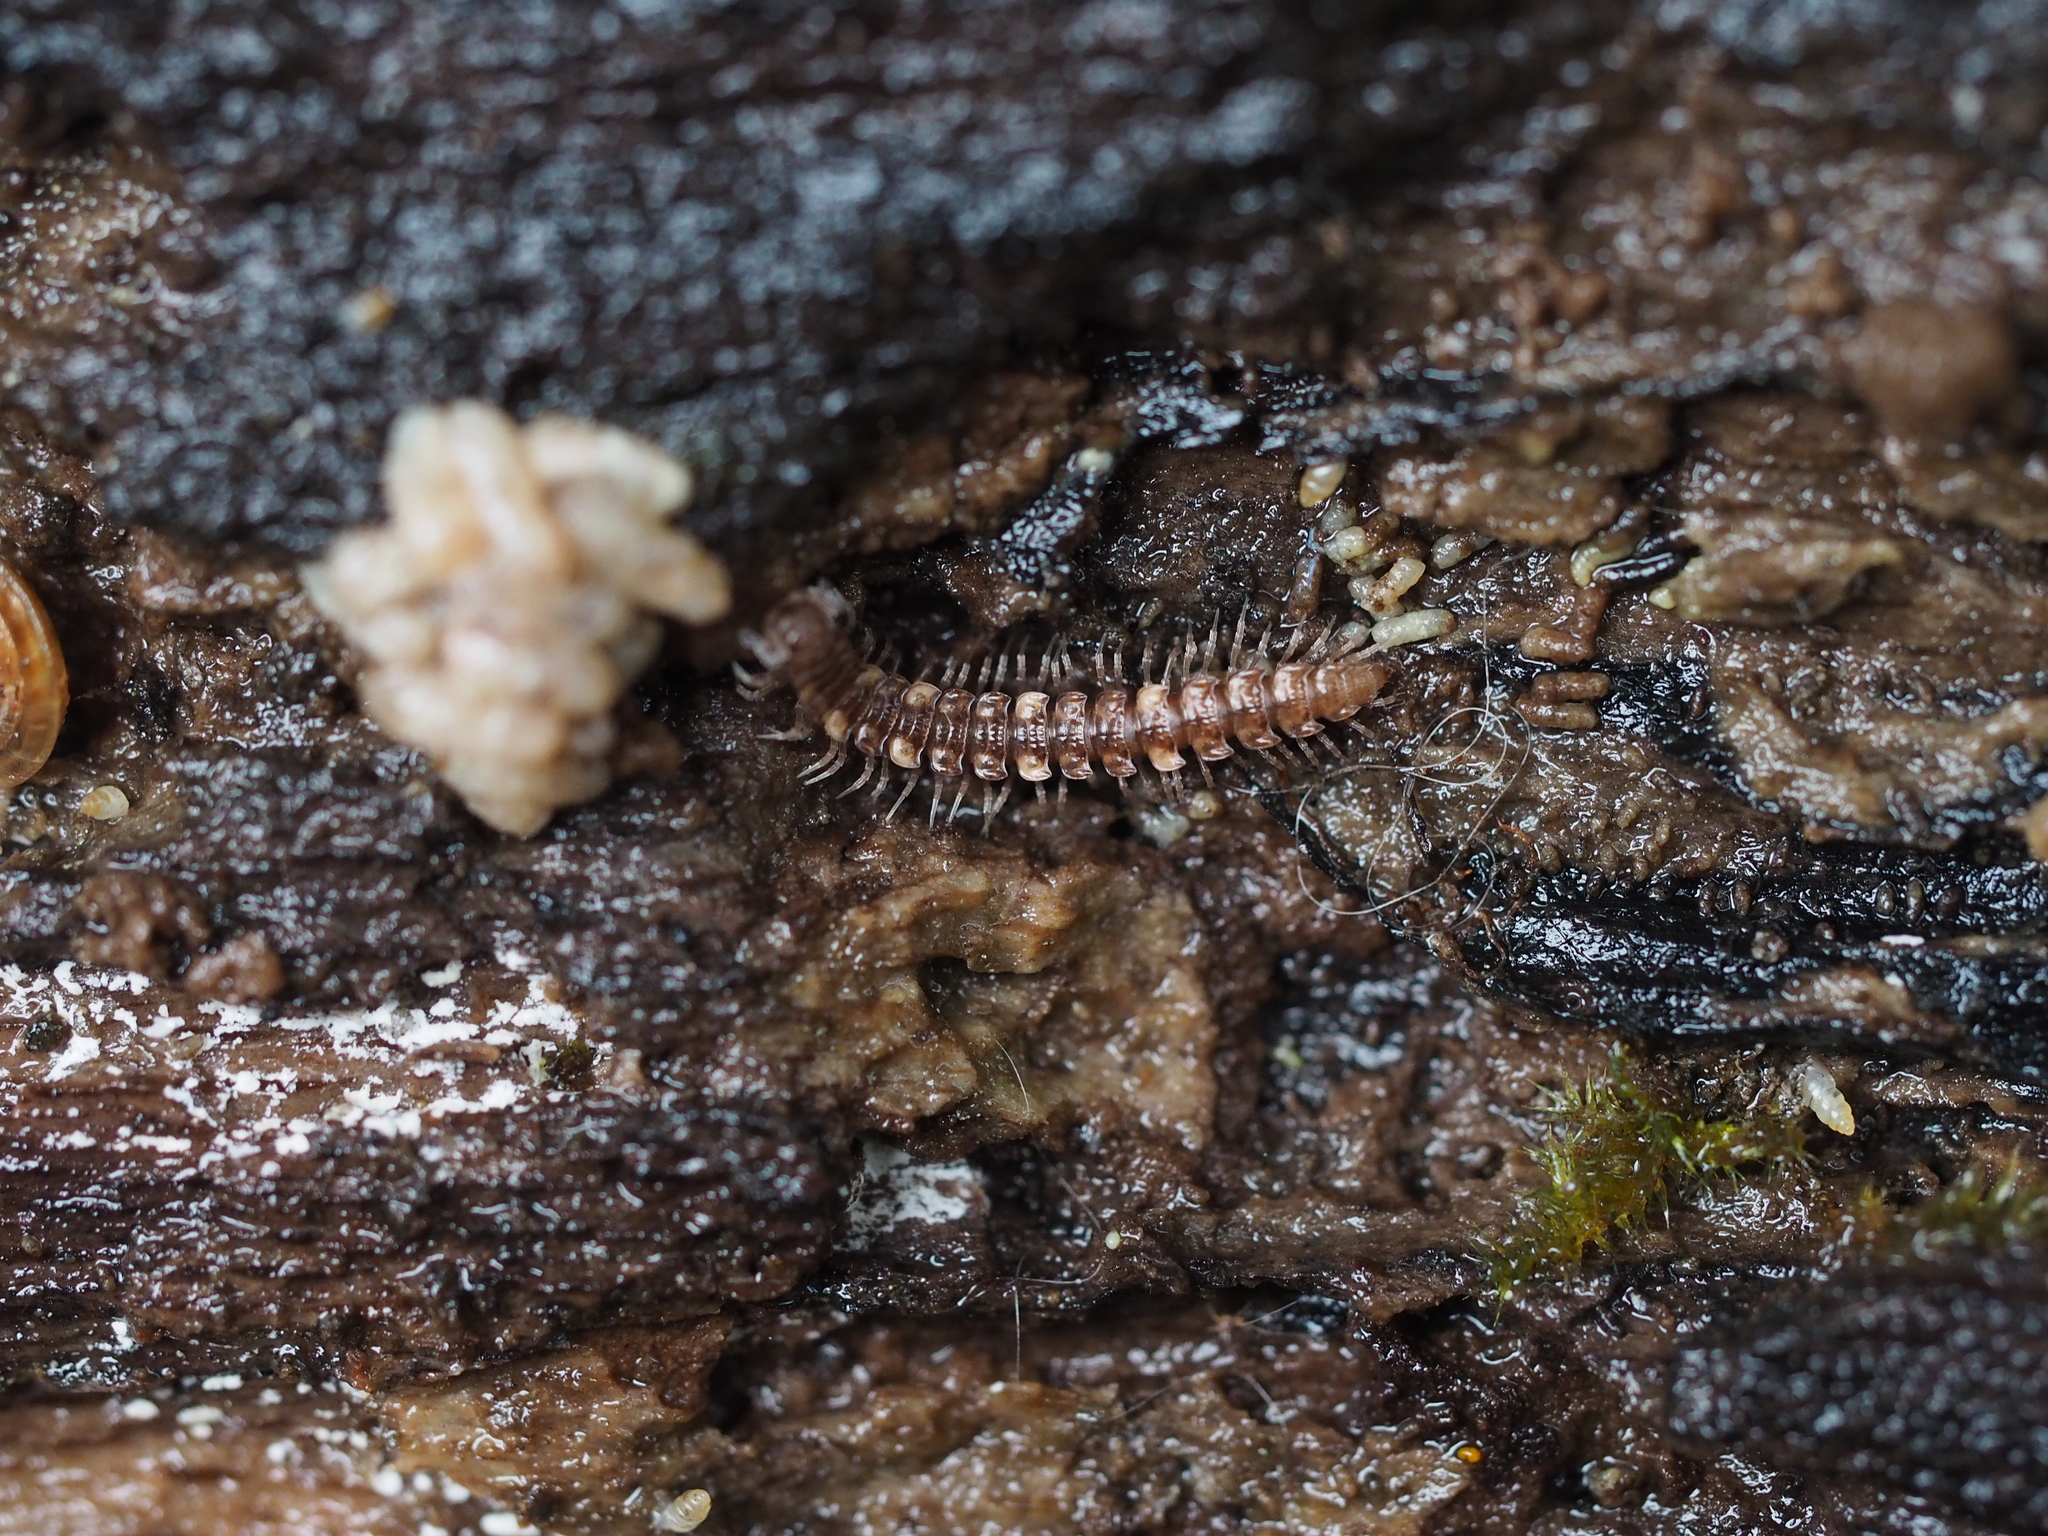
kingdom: Animalia
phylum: Arthropoda
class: Diplopoda
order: Polydesmida
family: Polydesmidae
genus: Polydesmus
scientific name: Polydesmus complanatus
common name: Flat-backed millipede
